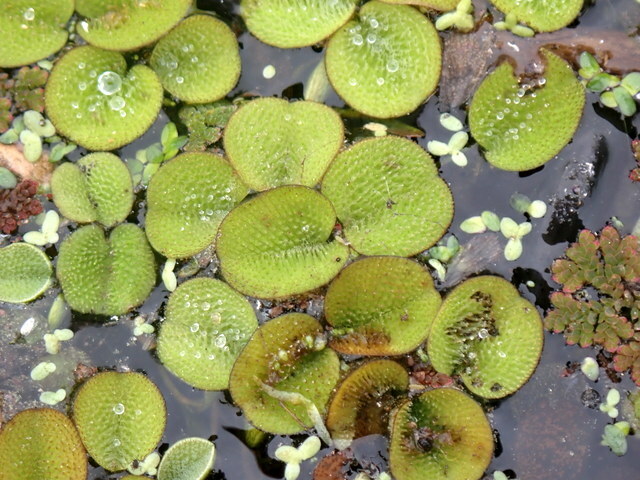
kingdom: Plantae
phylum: Tracheophyta
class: Polypodiopsida
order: Salviniales
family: Salviniaceae
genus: Salvinia
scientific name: Salvinia minima
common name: Water spangles
